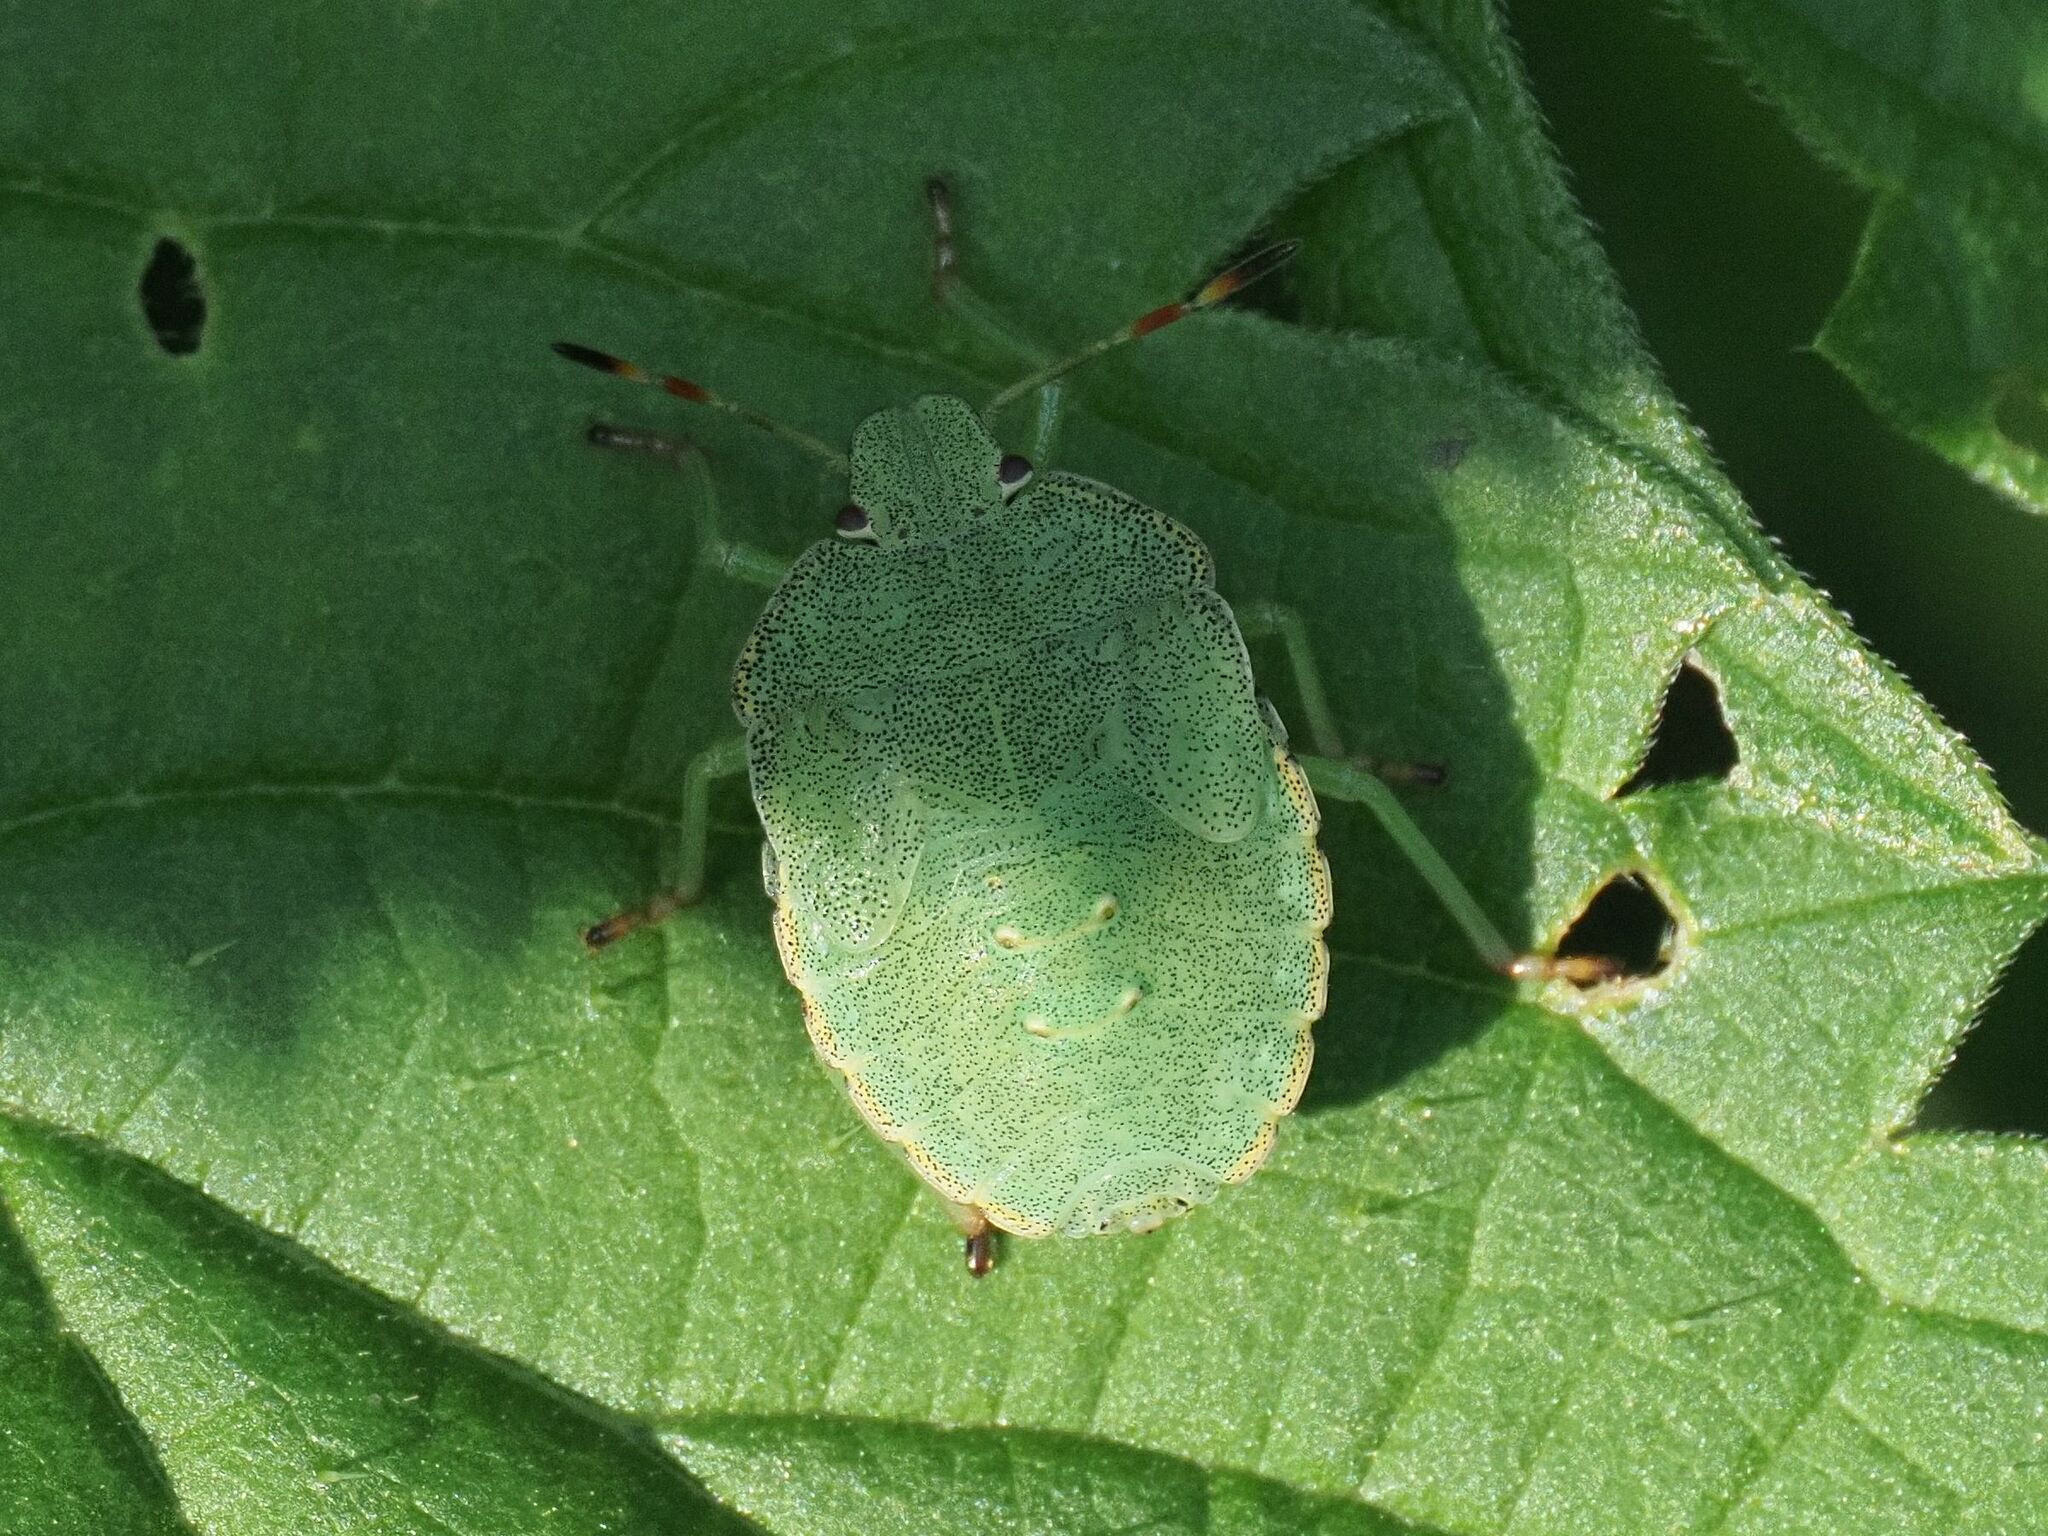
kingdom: Animalia
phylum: Arthropoda
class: Insecta
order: Hemiptera
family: Pentatomidae
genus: Palomena
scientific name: Palomena prasina
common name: Green shieldbug
